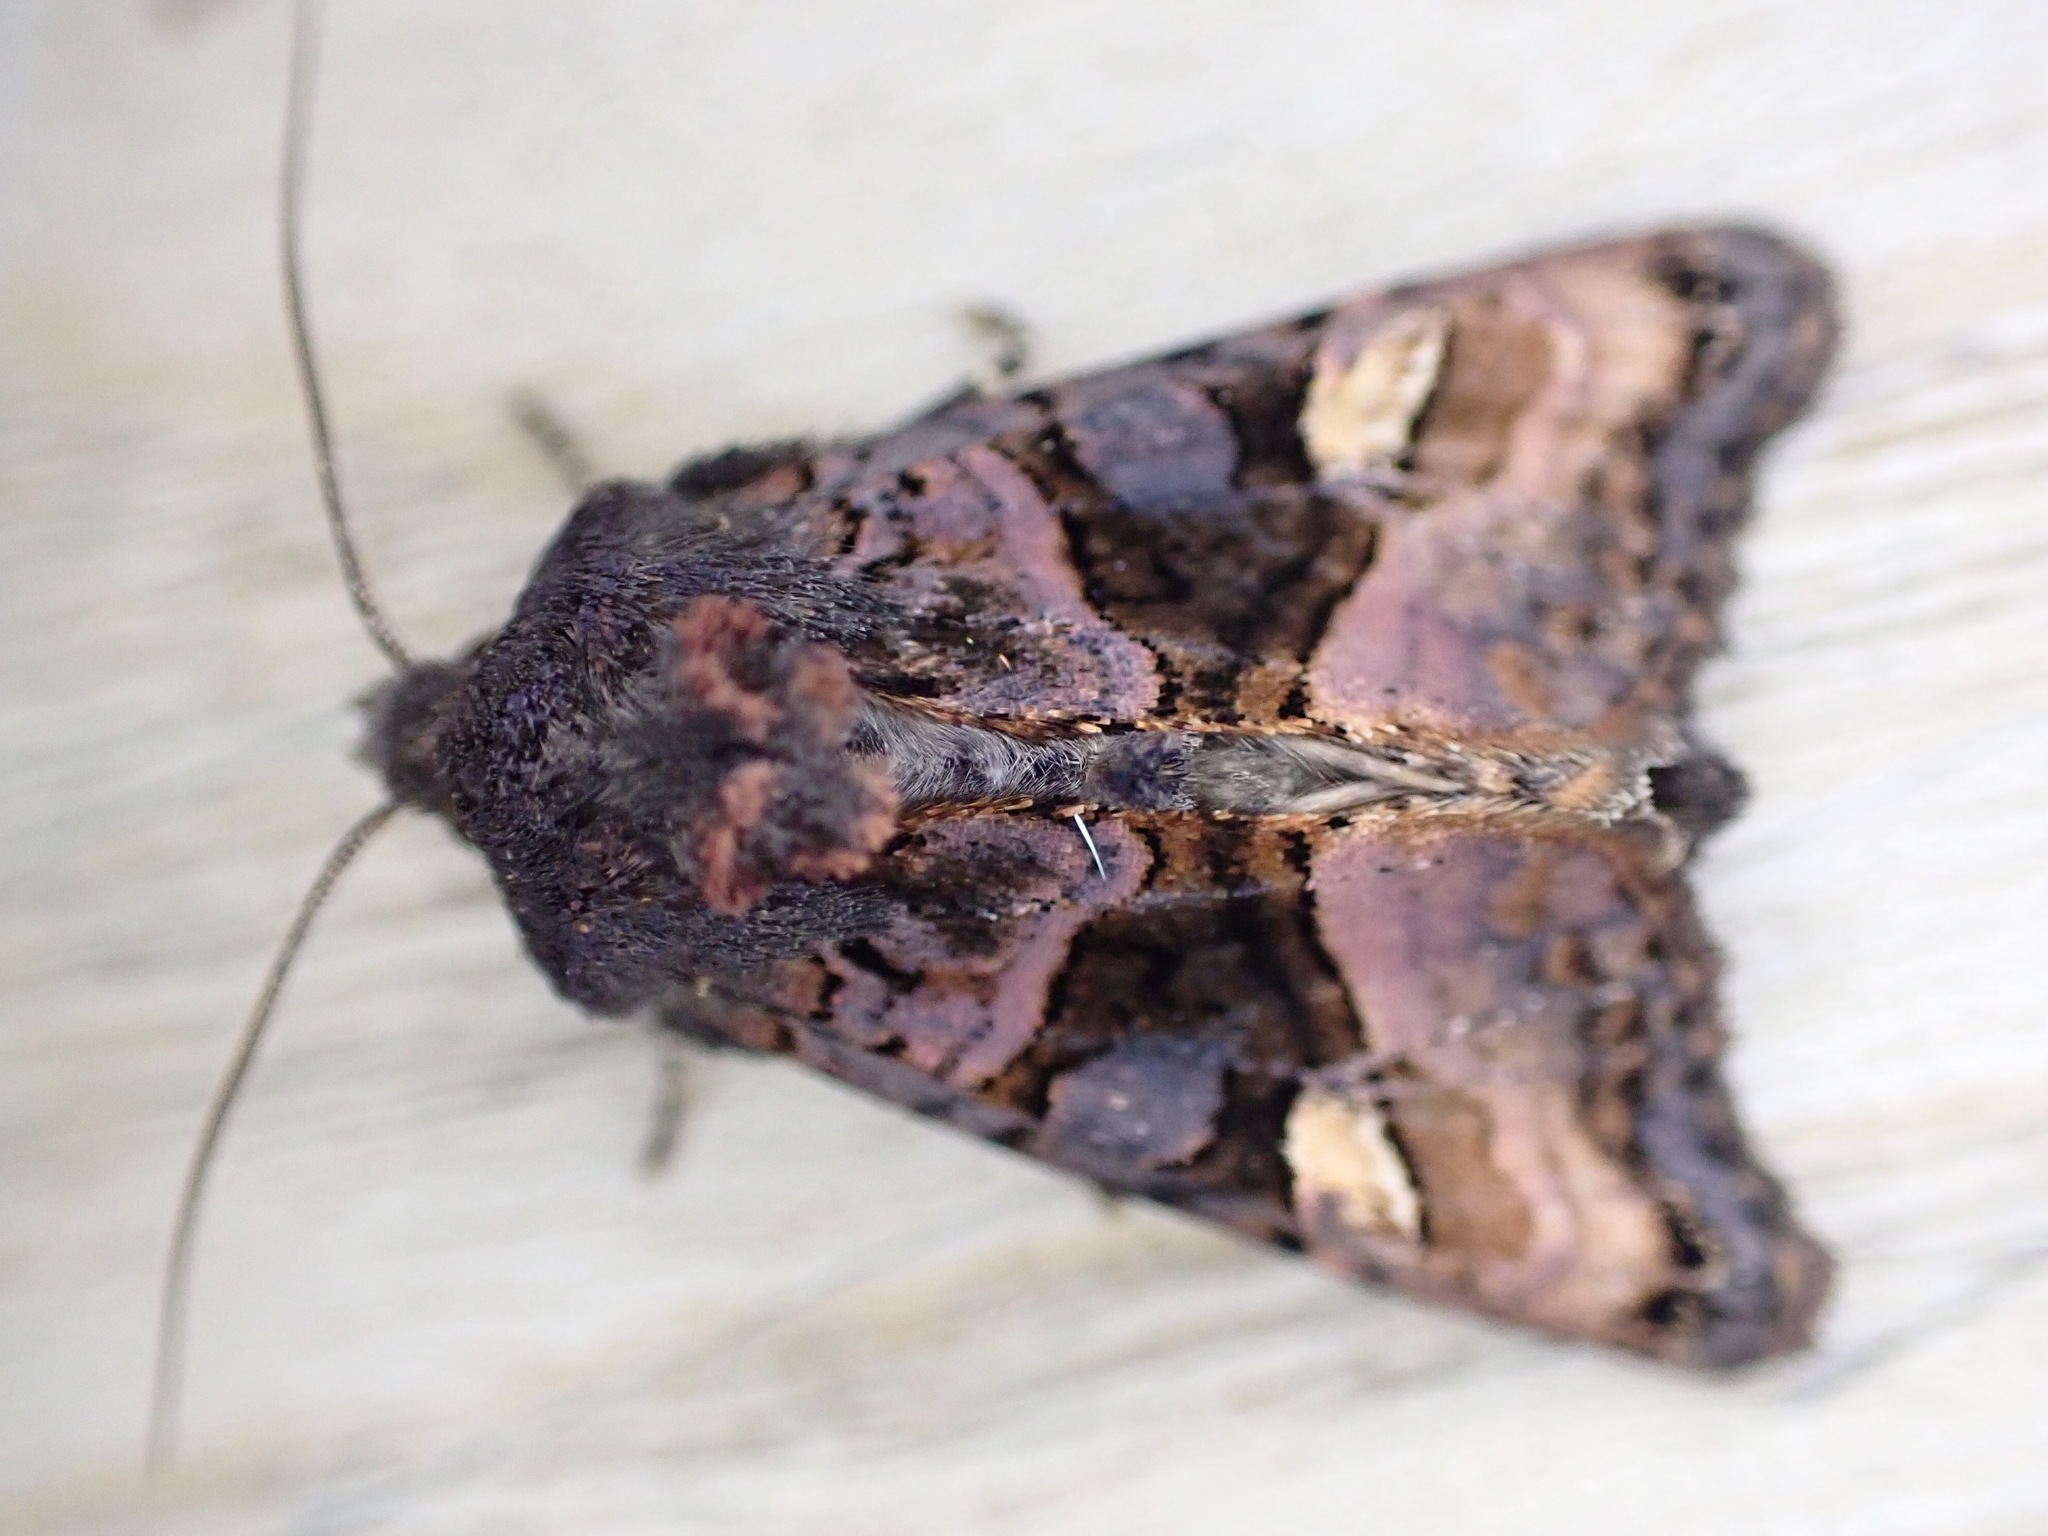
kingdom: Animalia
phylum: Arthropoda
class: Insecta
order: Lepidoptera
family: Noctuidae
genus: Euplexia
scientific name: Euplexia lucipara
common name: Small angle shades
